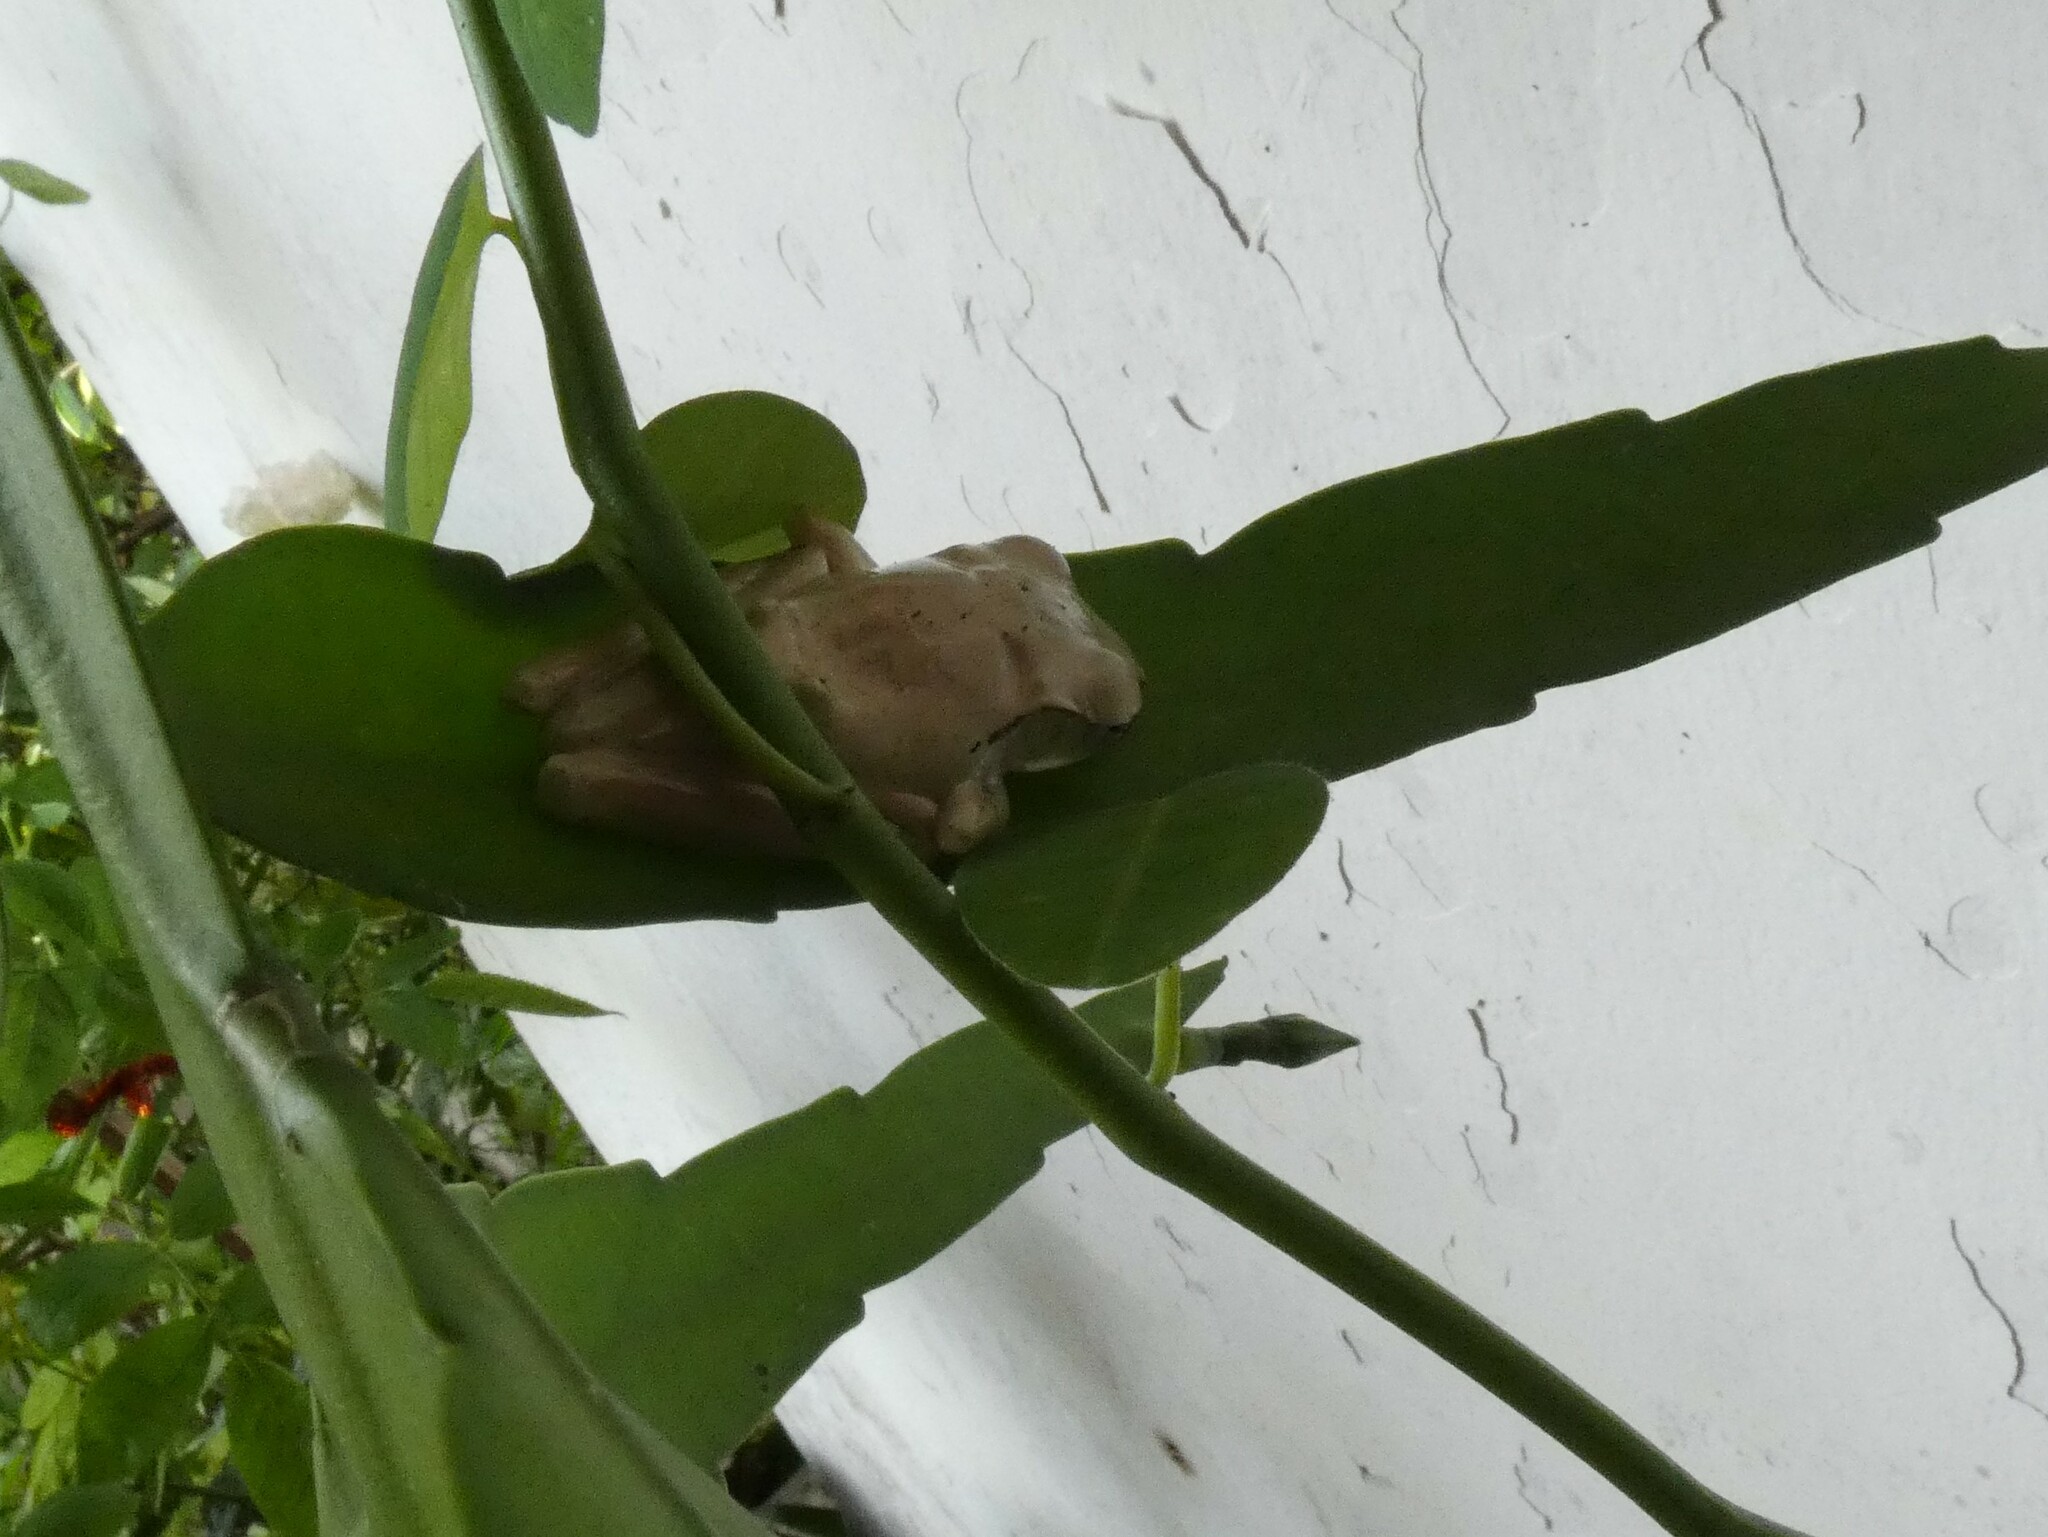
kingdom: Animalia
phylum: Chordata
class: Amphibia
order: Anura
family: Rhacophoridae
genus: Polypedates
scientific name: Polypedates megacephalus
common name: Hong kong whipping frog
